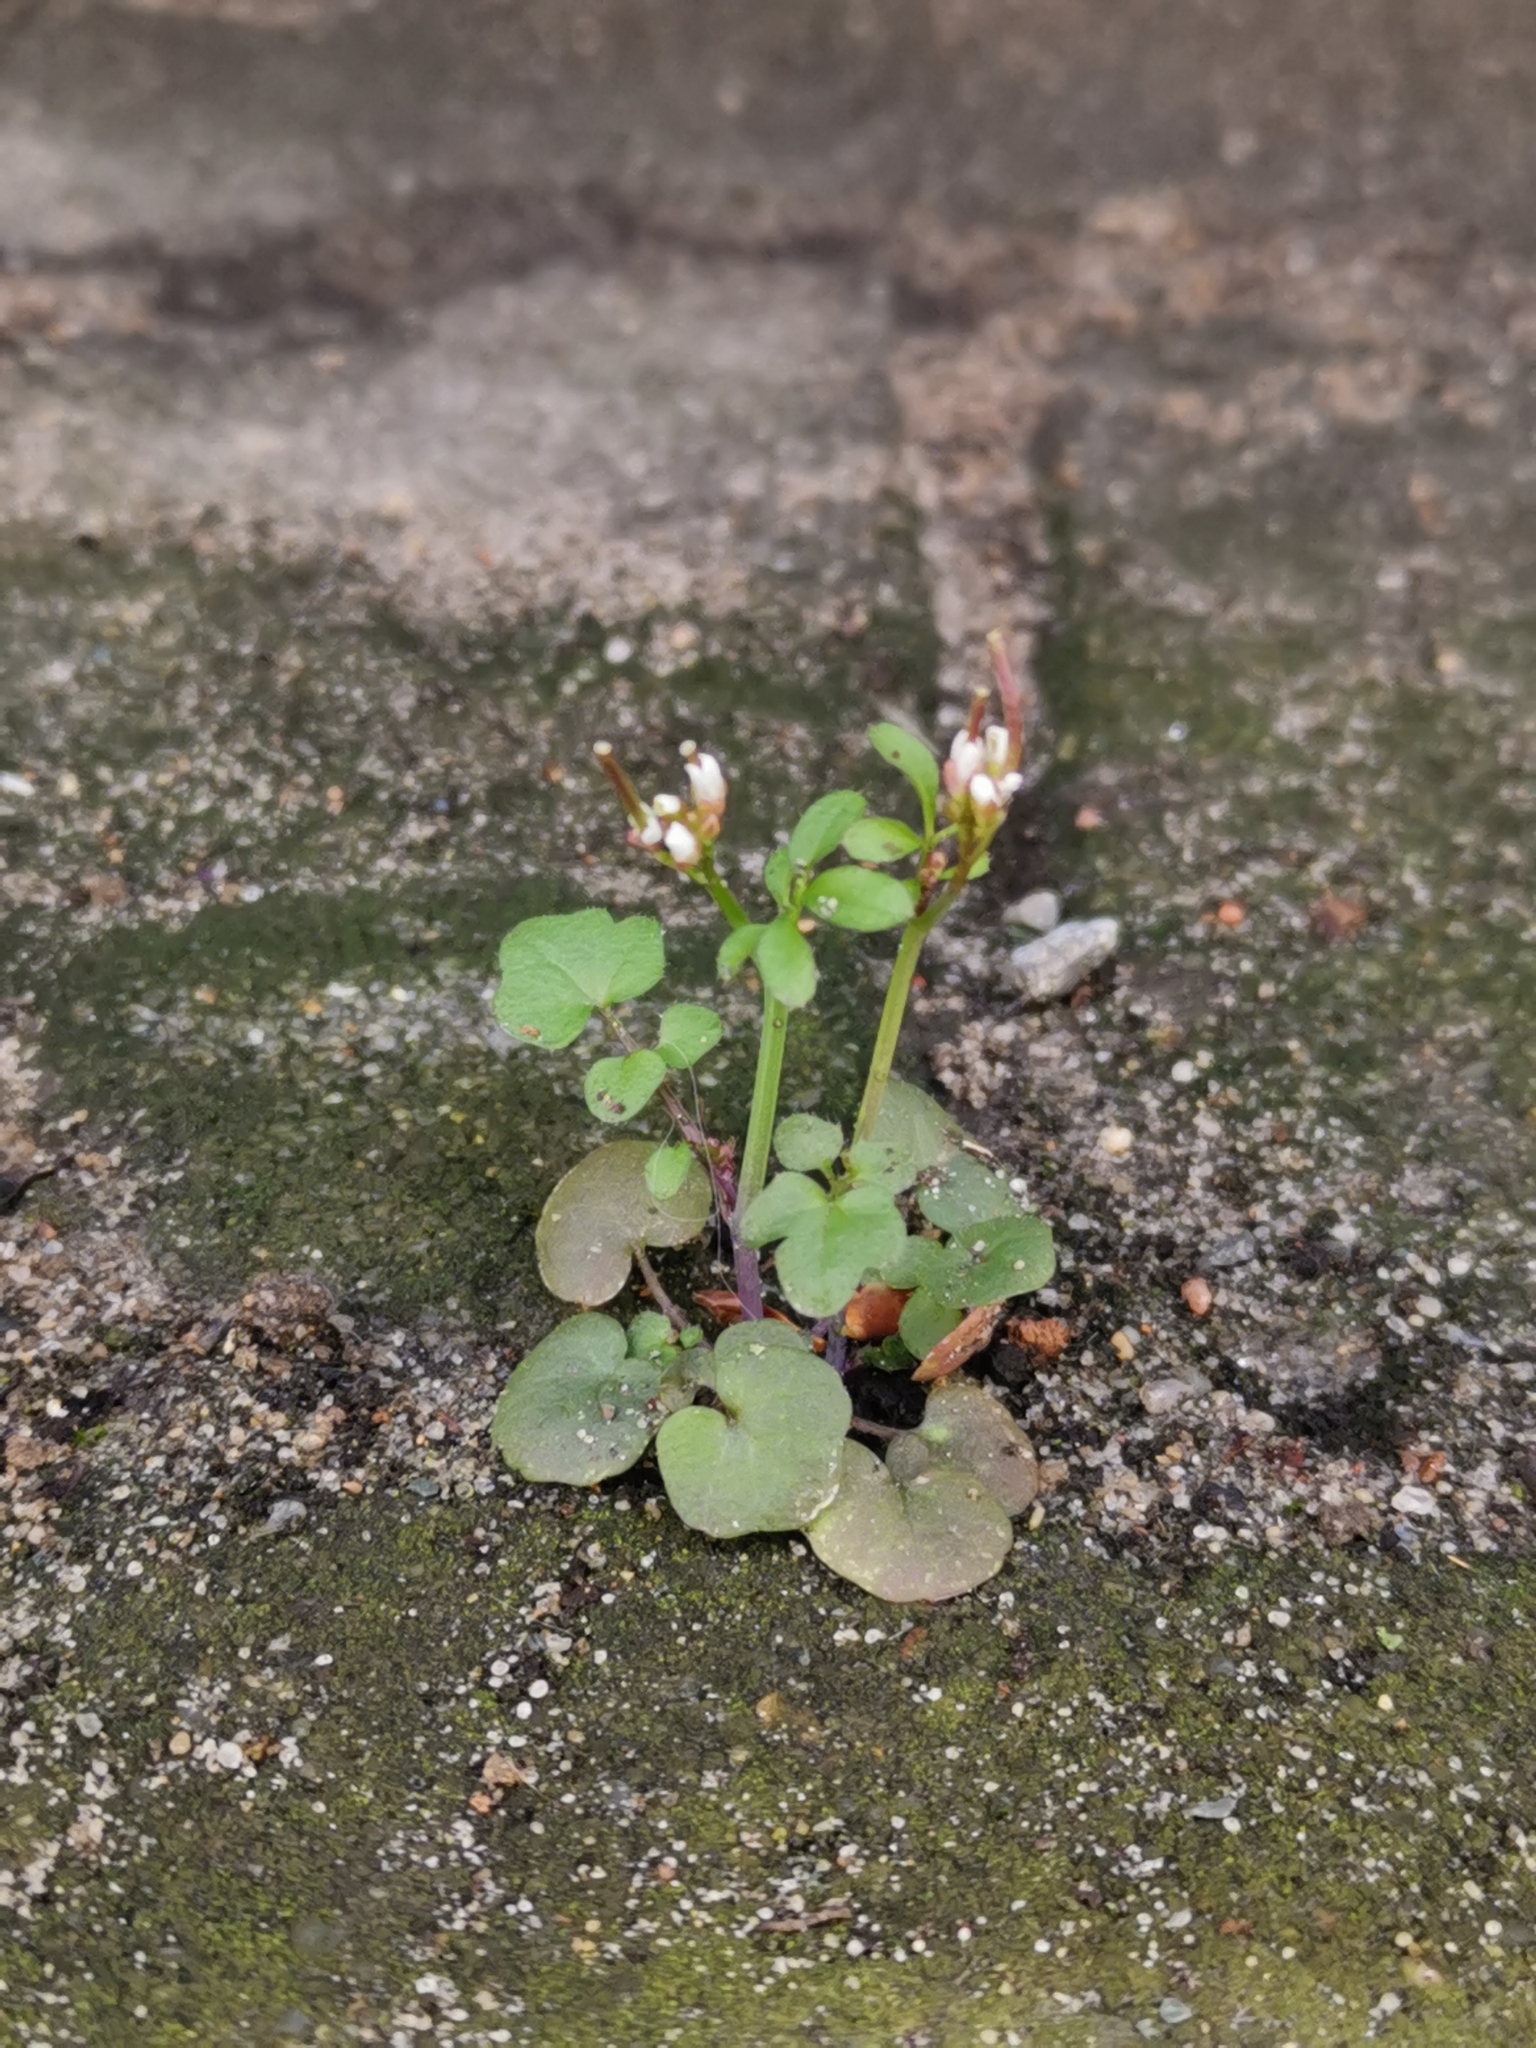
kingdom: Plantae
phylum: Tracheophyta
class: Magnoliopsida
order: Brassicales
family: Brassicaceae
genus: Cardamine
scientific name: Cardamine hirsuta
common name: Hairy bittercress
